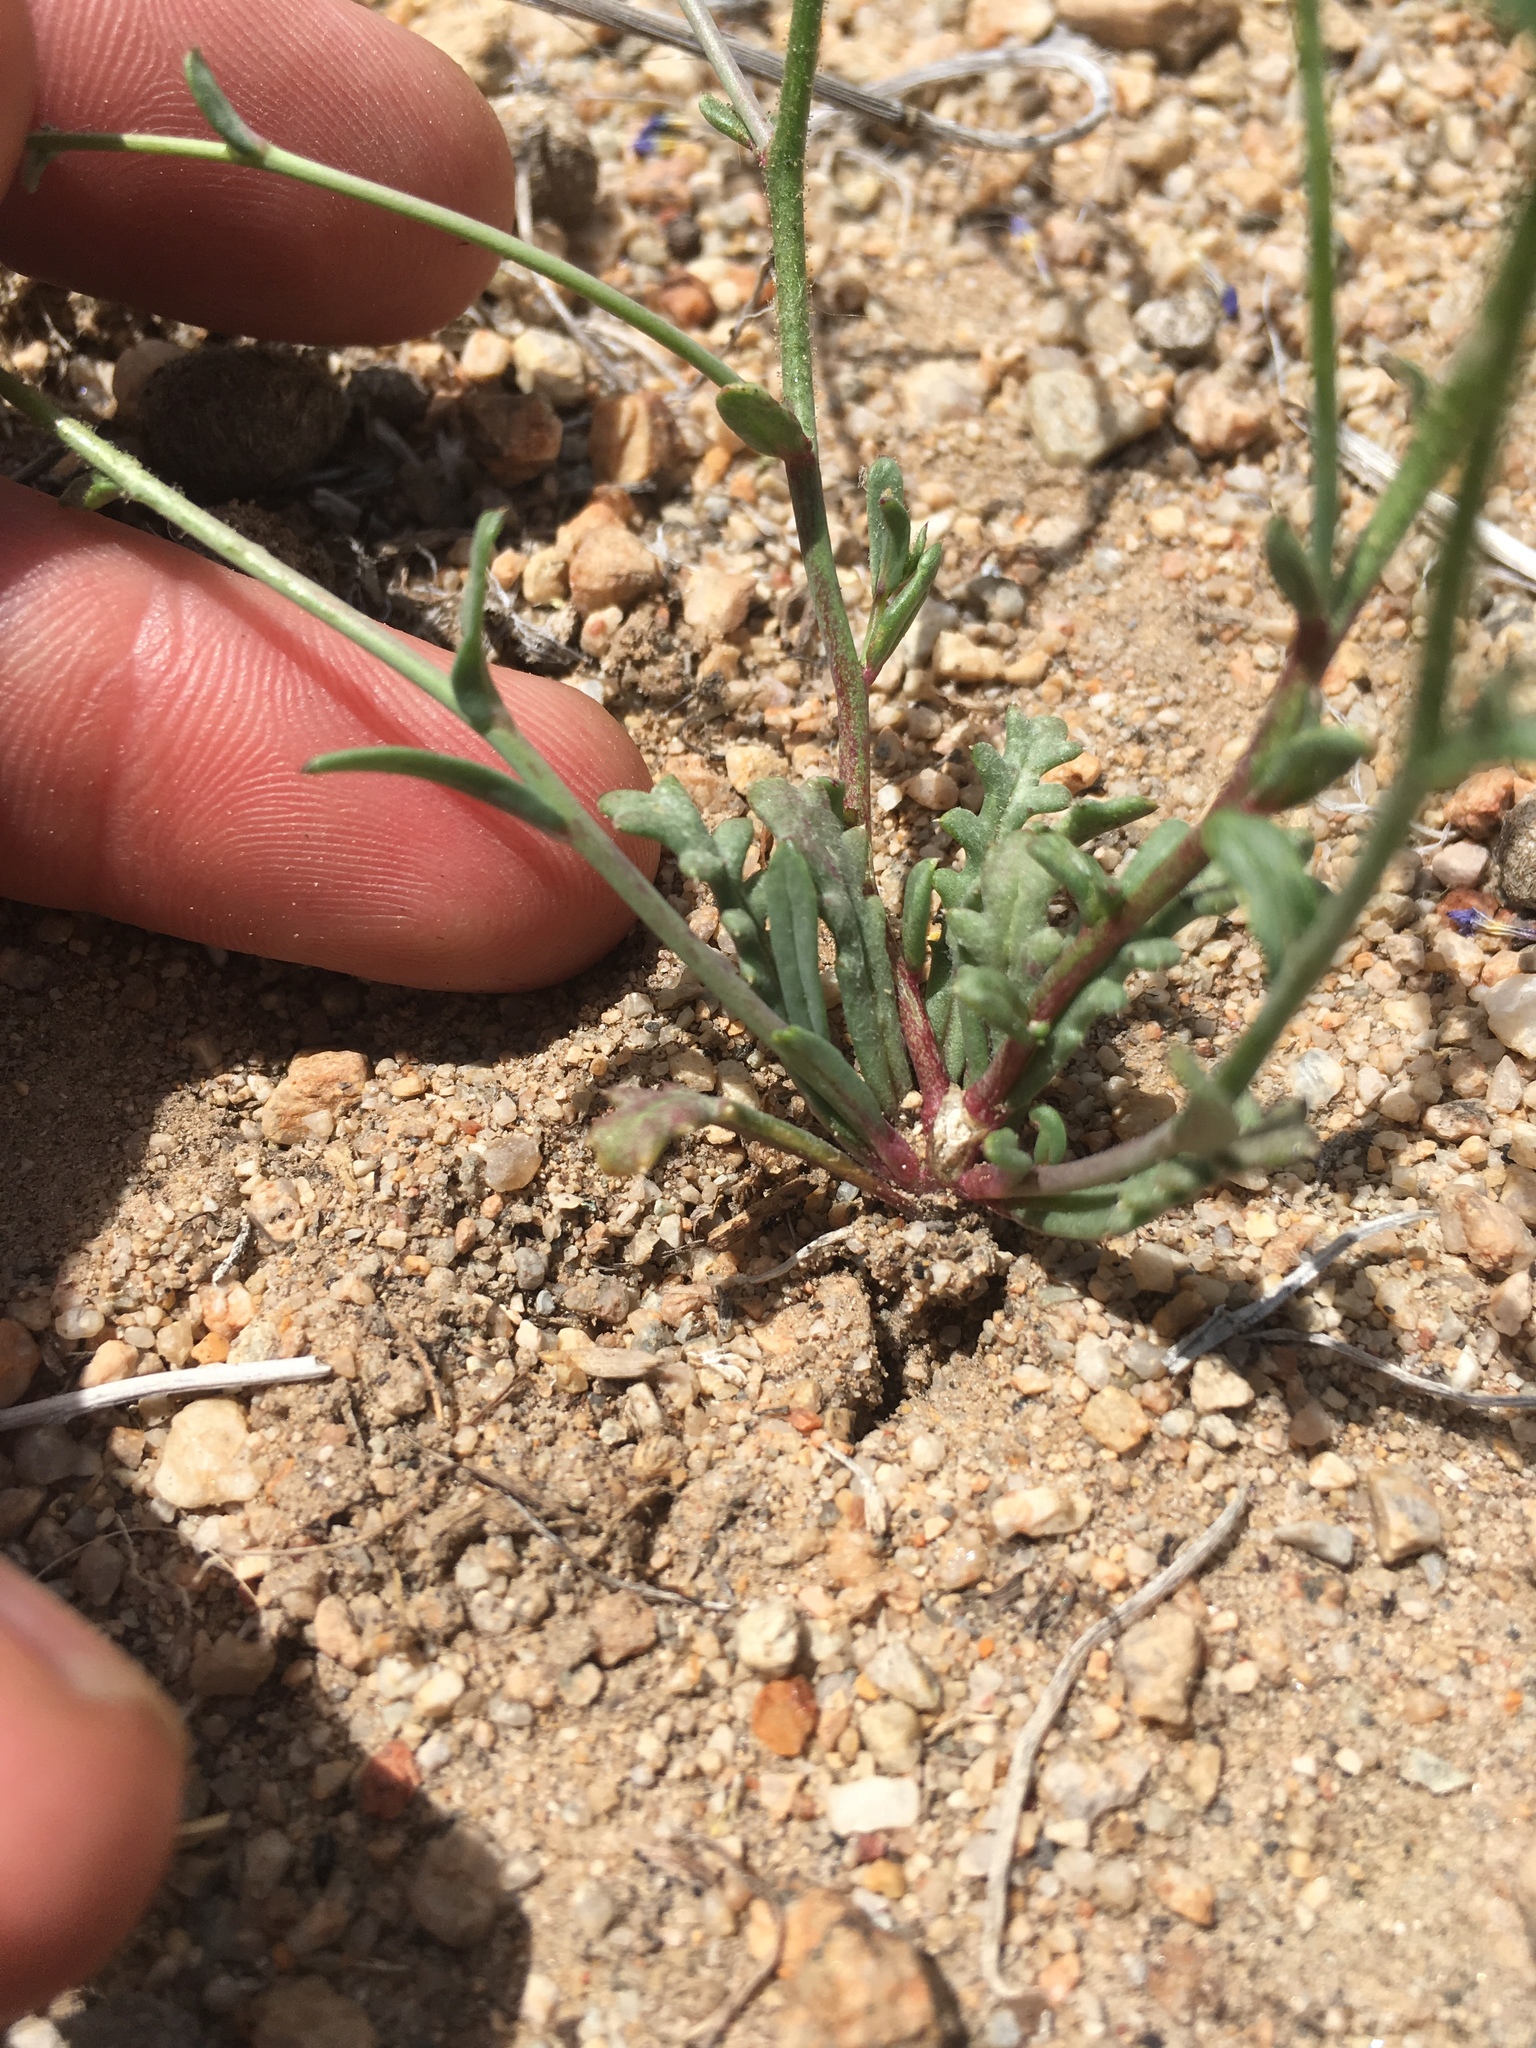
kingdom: Plantae
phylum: Tracheophyta
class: Magnoliopsida
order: Ericales
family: Polemoniaceae
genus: Gilia
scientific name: Gilia sinuata
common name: Rosy gilia
